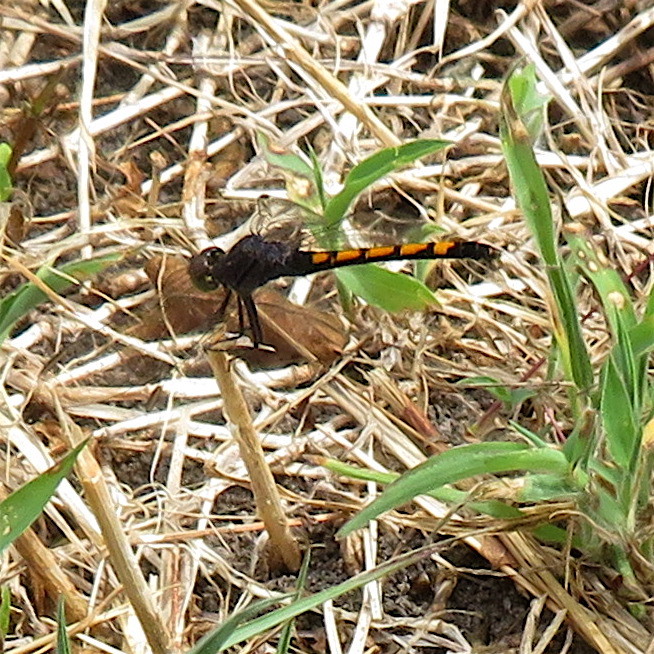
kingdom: Animalia
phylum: Arthropoda
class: Insecta
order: Odonata
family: Libellulidae
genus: Erythrodiplax
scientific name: Erythrodiplax berenice
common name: Seaside dragonlet
